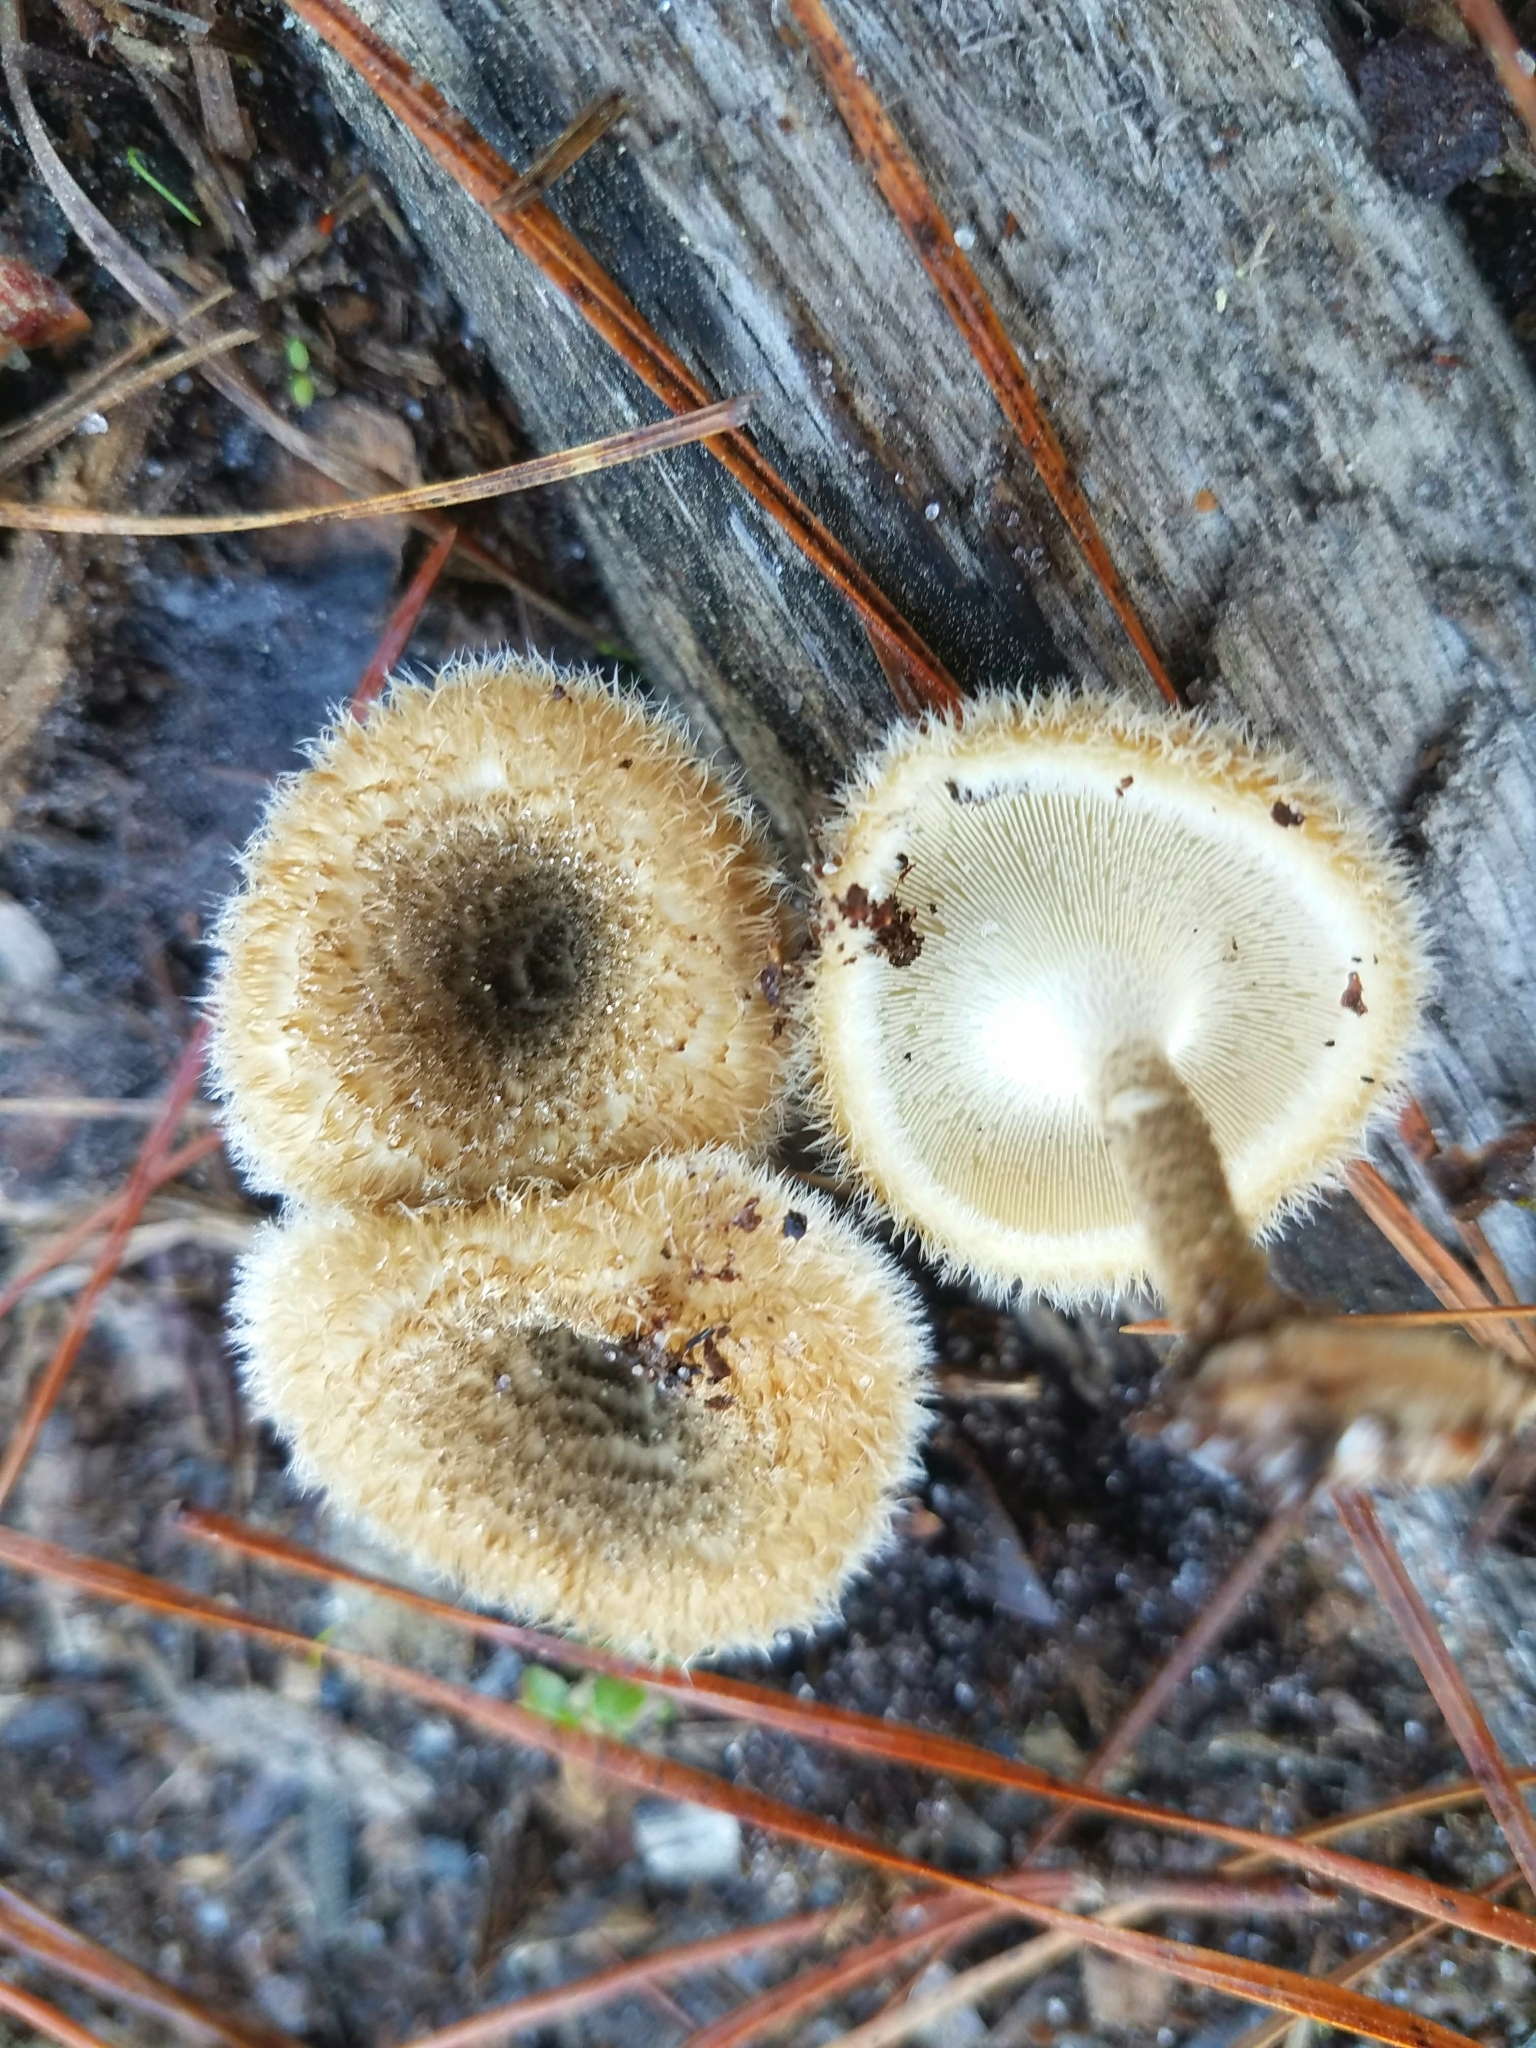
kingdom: Fungi
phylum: Basidiomycota
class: Agaricomycetes
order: Polyporales
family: Polyporaceae
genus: Lentinus
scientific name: Lentinus crinitus
